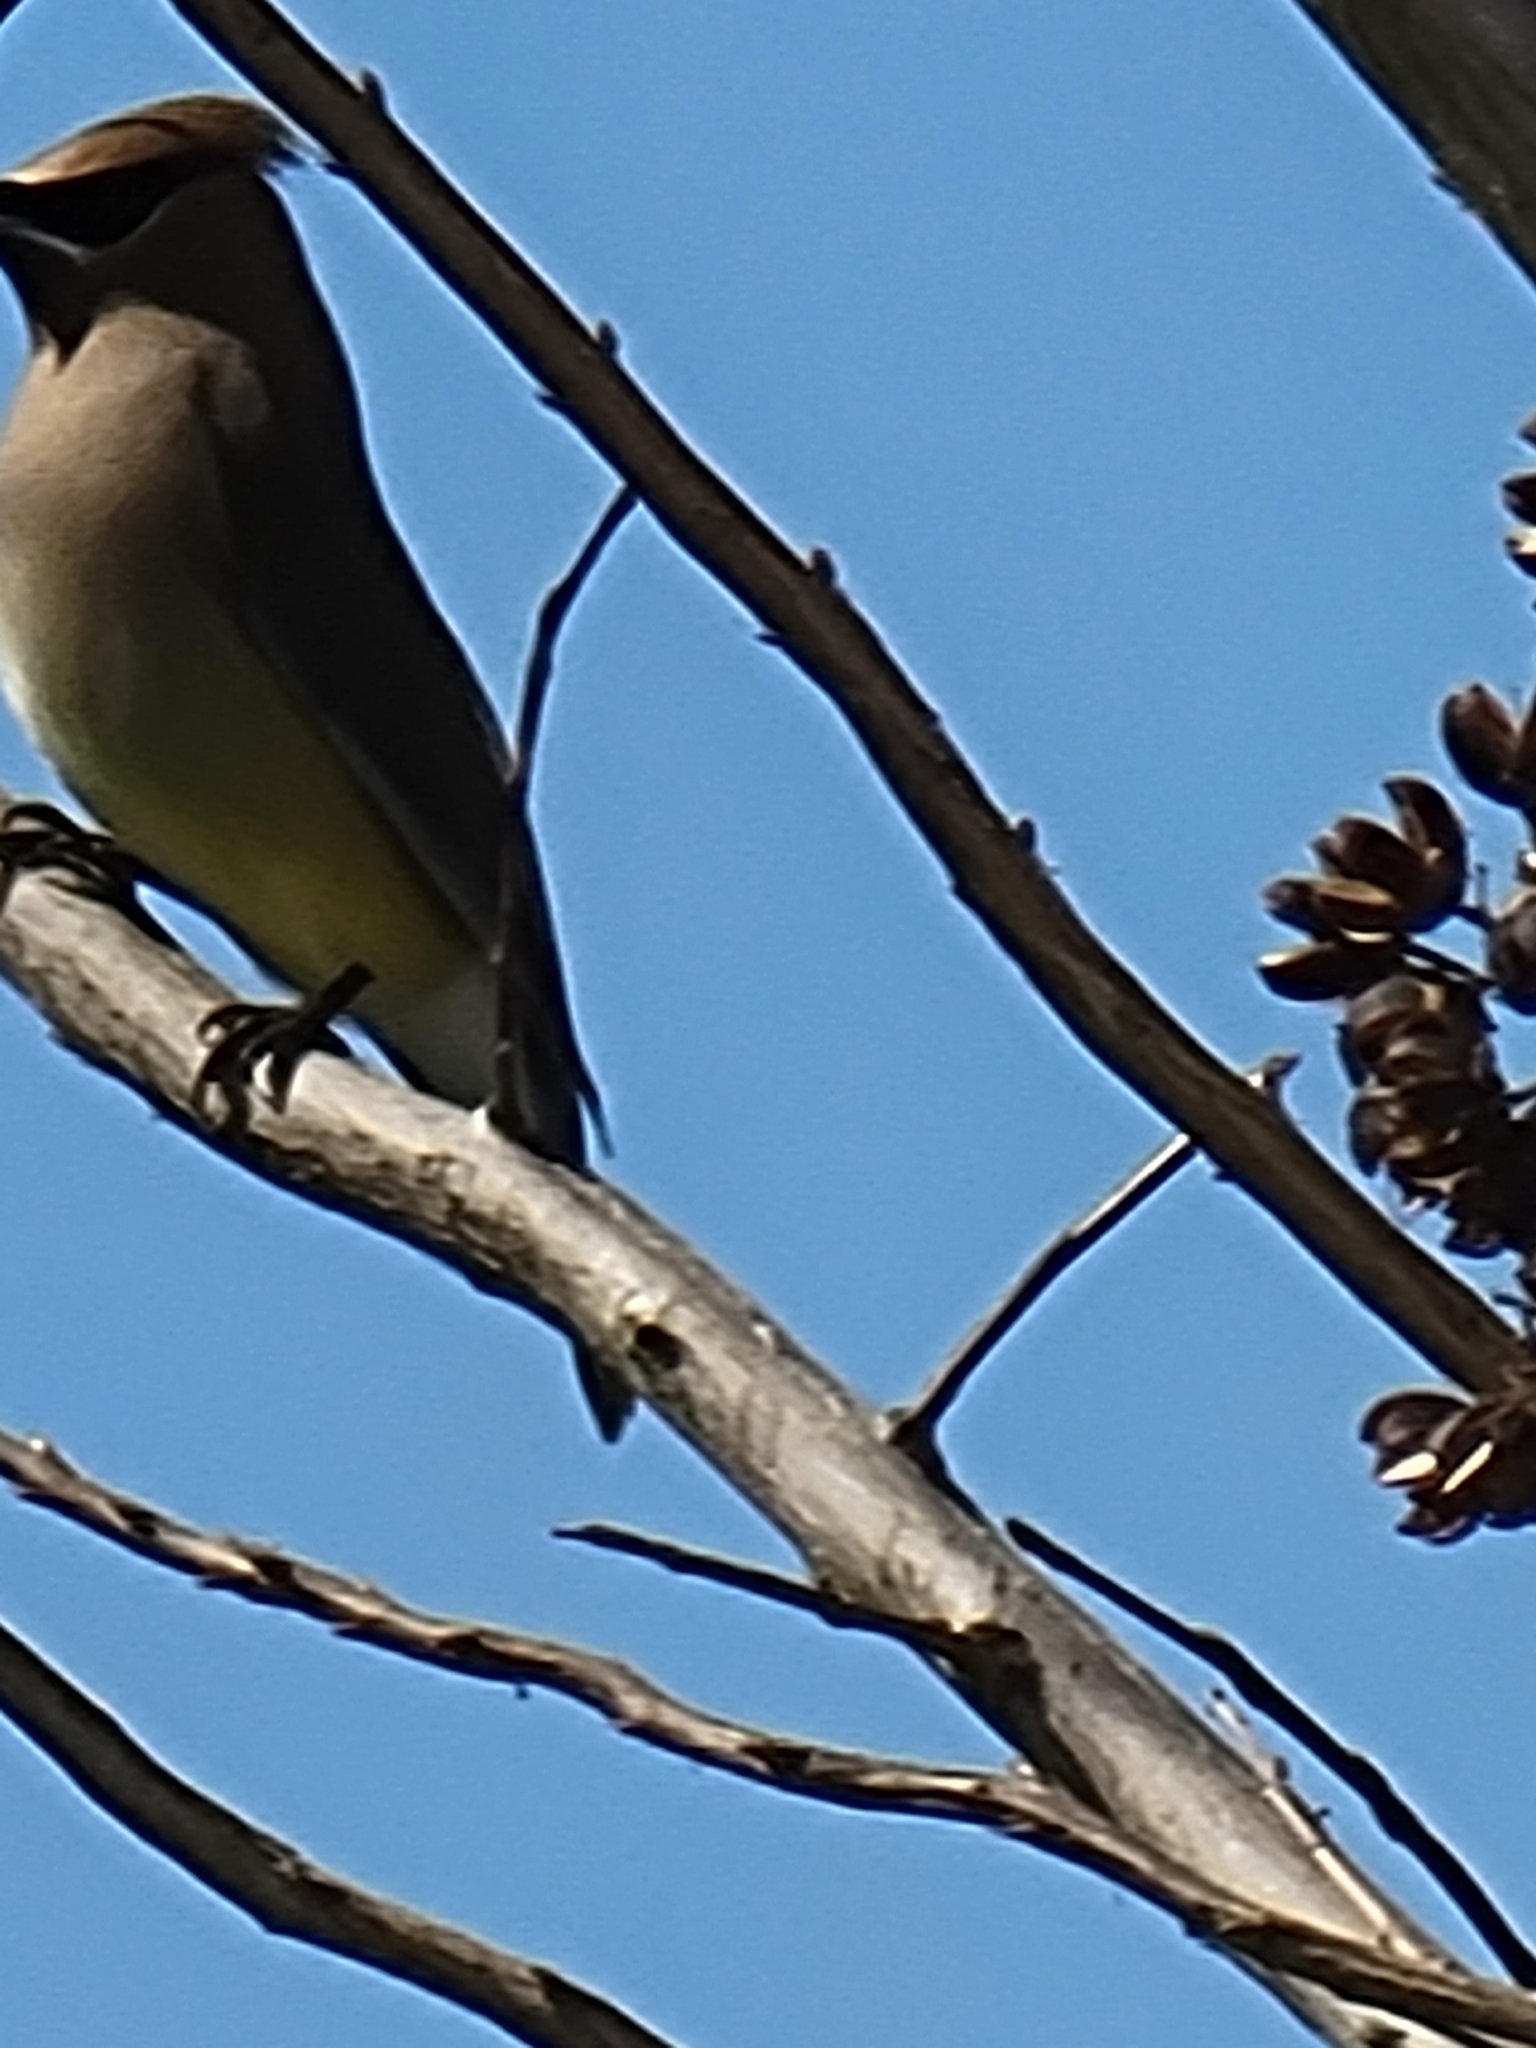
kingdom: Animalia
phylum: Chordata
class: Aves
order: Passeriformes
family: Bombycillidae
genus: Bombycilla
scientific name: Bombycilla cedrorum
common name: Cedar waxwing
